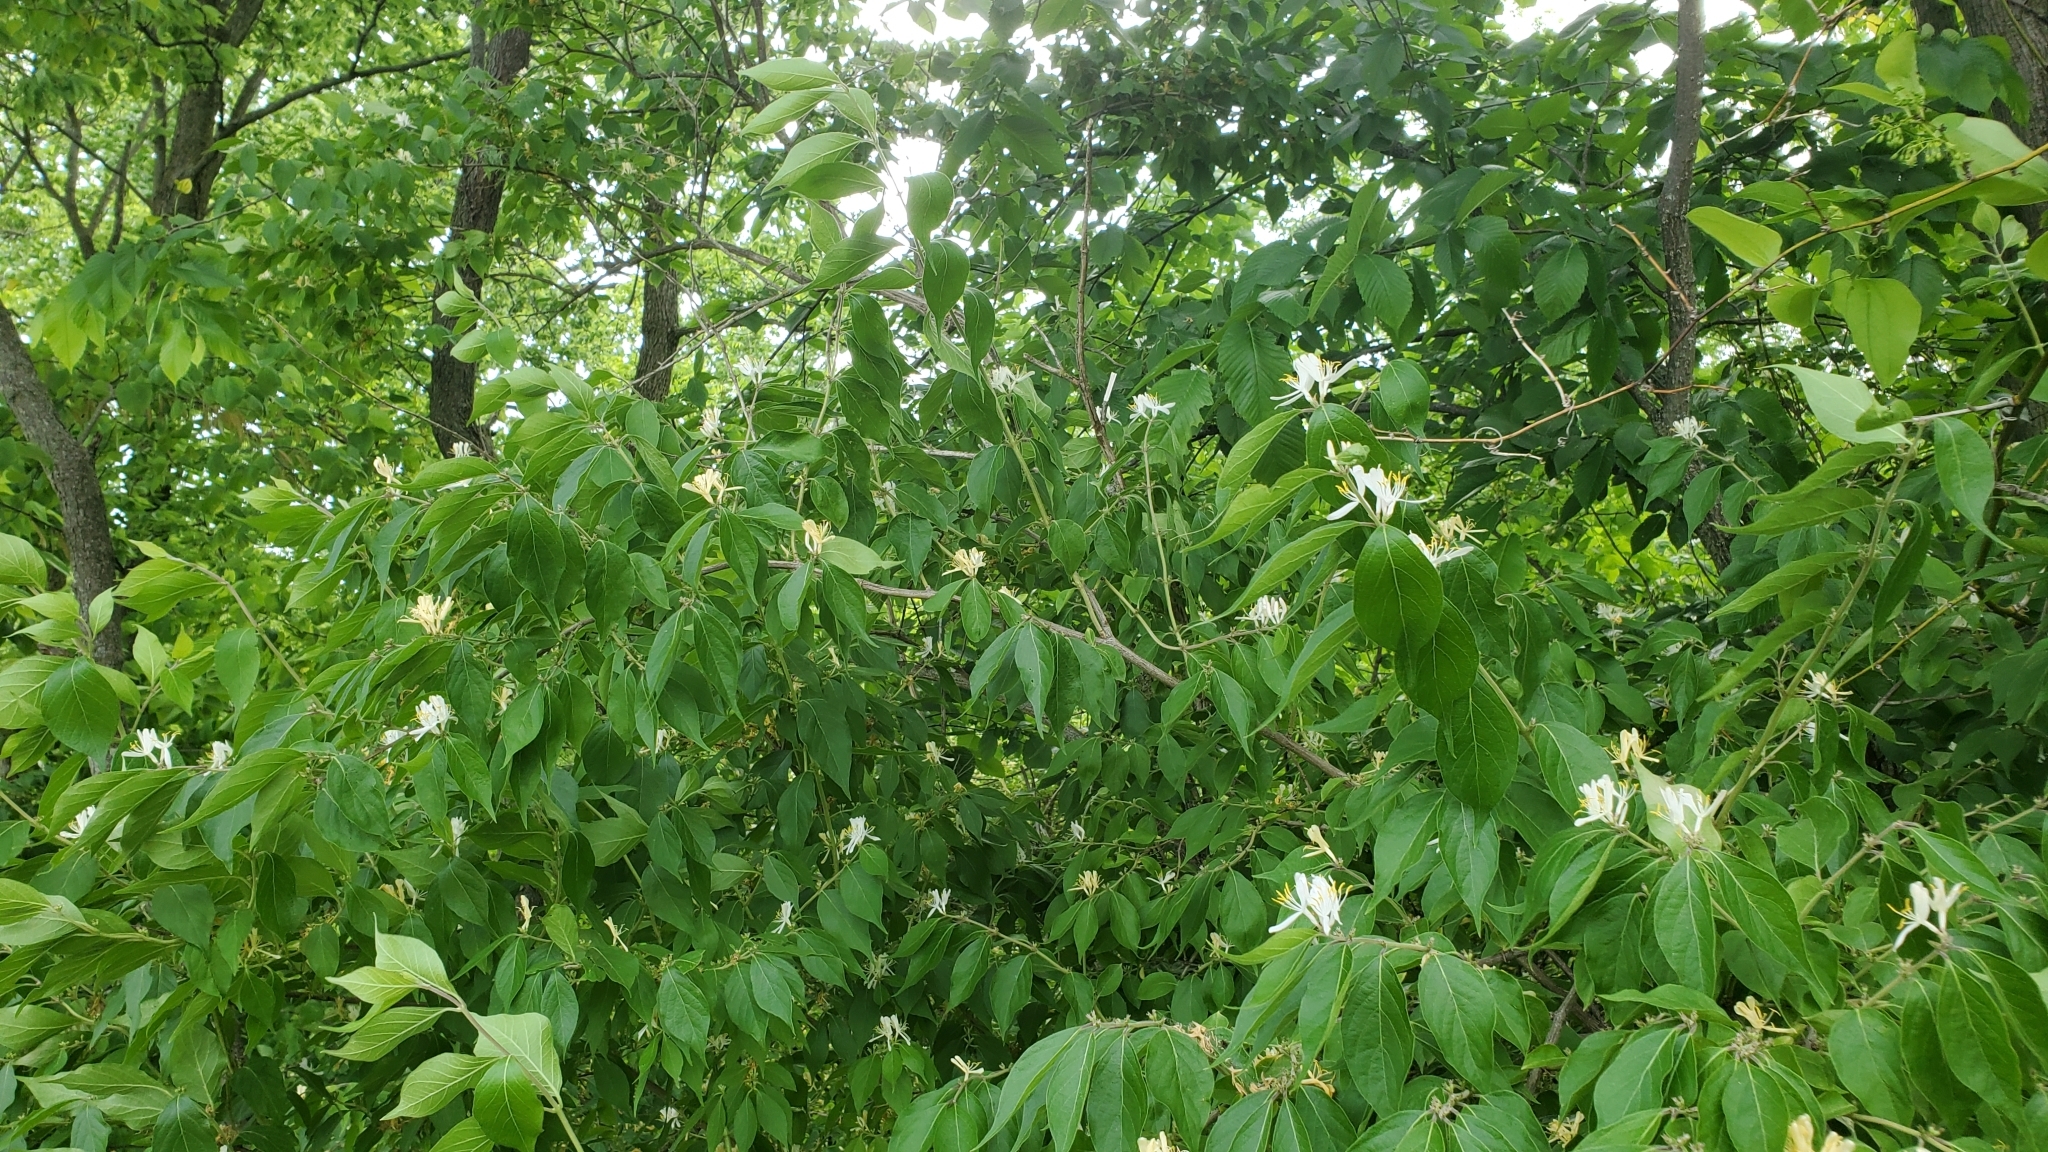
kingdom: Plantae
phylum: Tracheophyta
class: Magnoliopsida
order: Dipsacales
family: Caprifoliaceae
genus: Lonicera
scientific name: Lonicera maackii
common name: Amur honeysuckle
